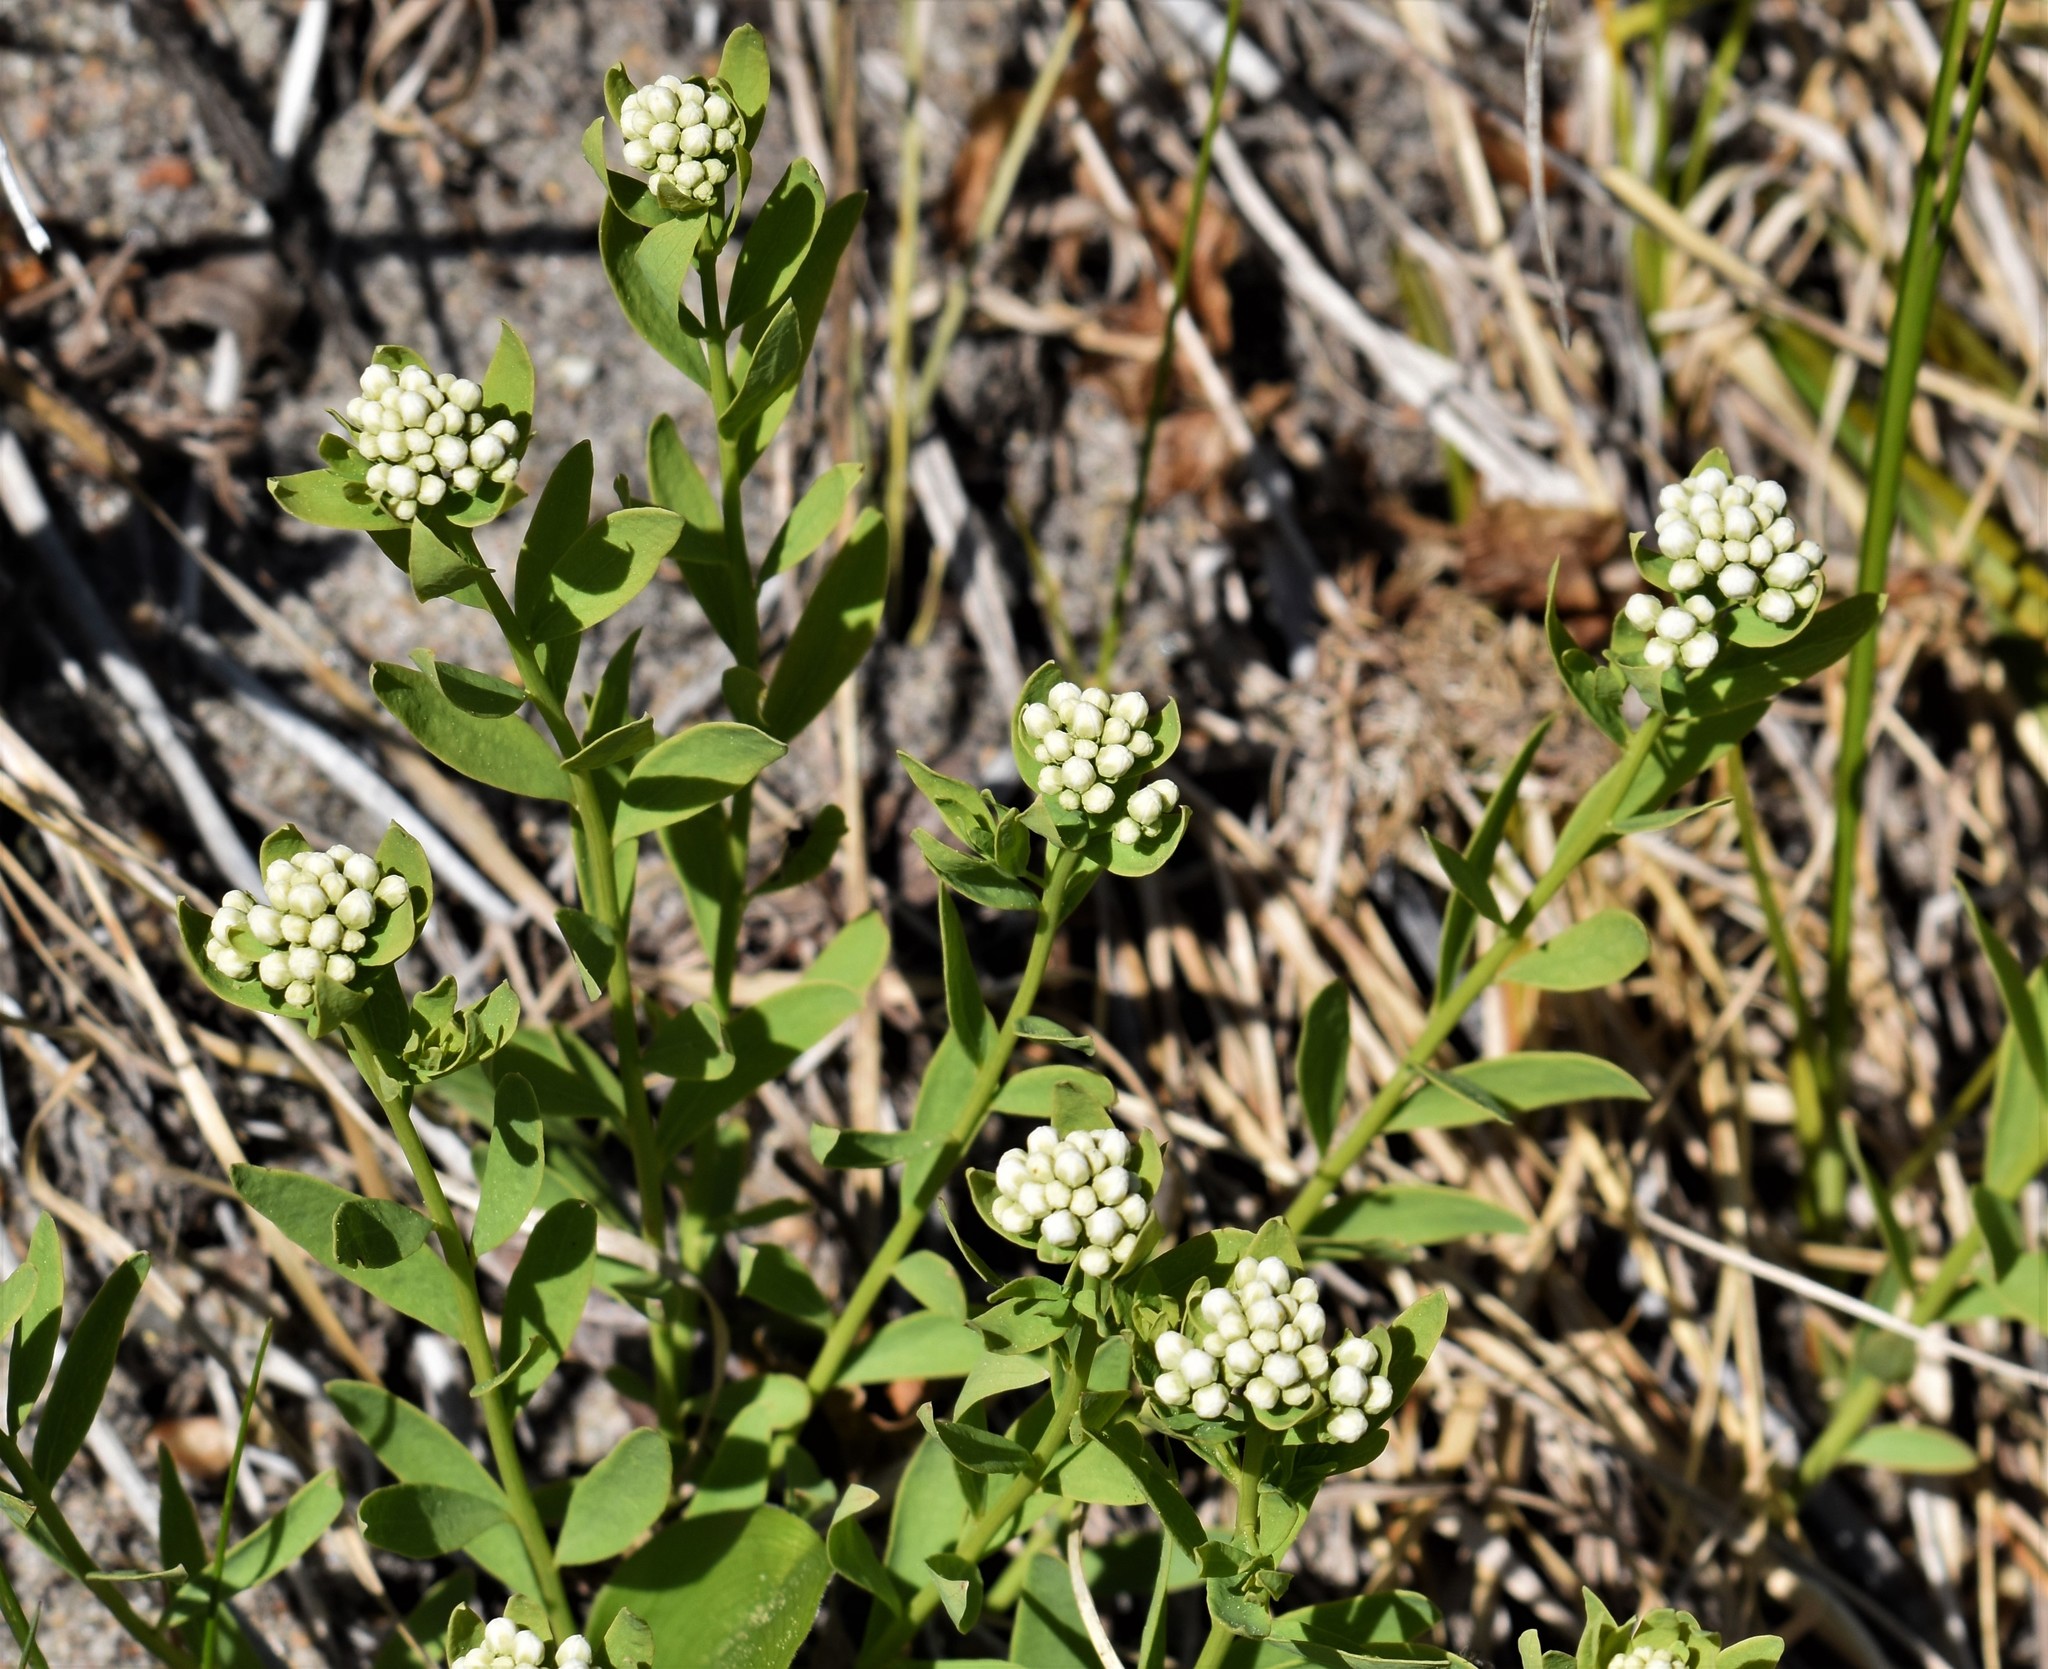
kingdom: Plantae
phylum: Tracheophyta
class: Magnoliopsida
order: Santalales
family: Comandraceae
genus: Comandra
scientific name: Comandra umbellata
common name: Bastard toadflax
